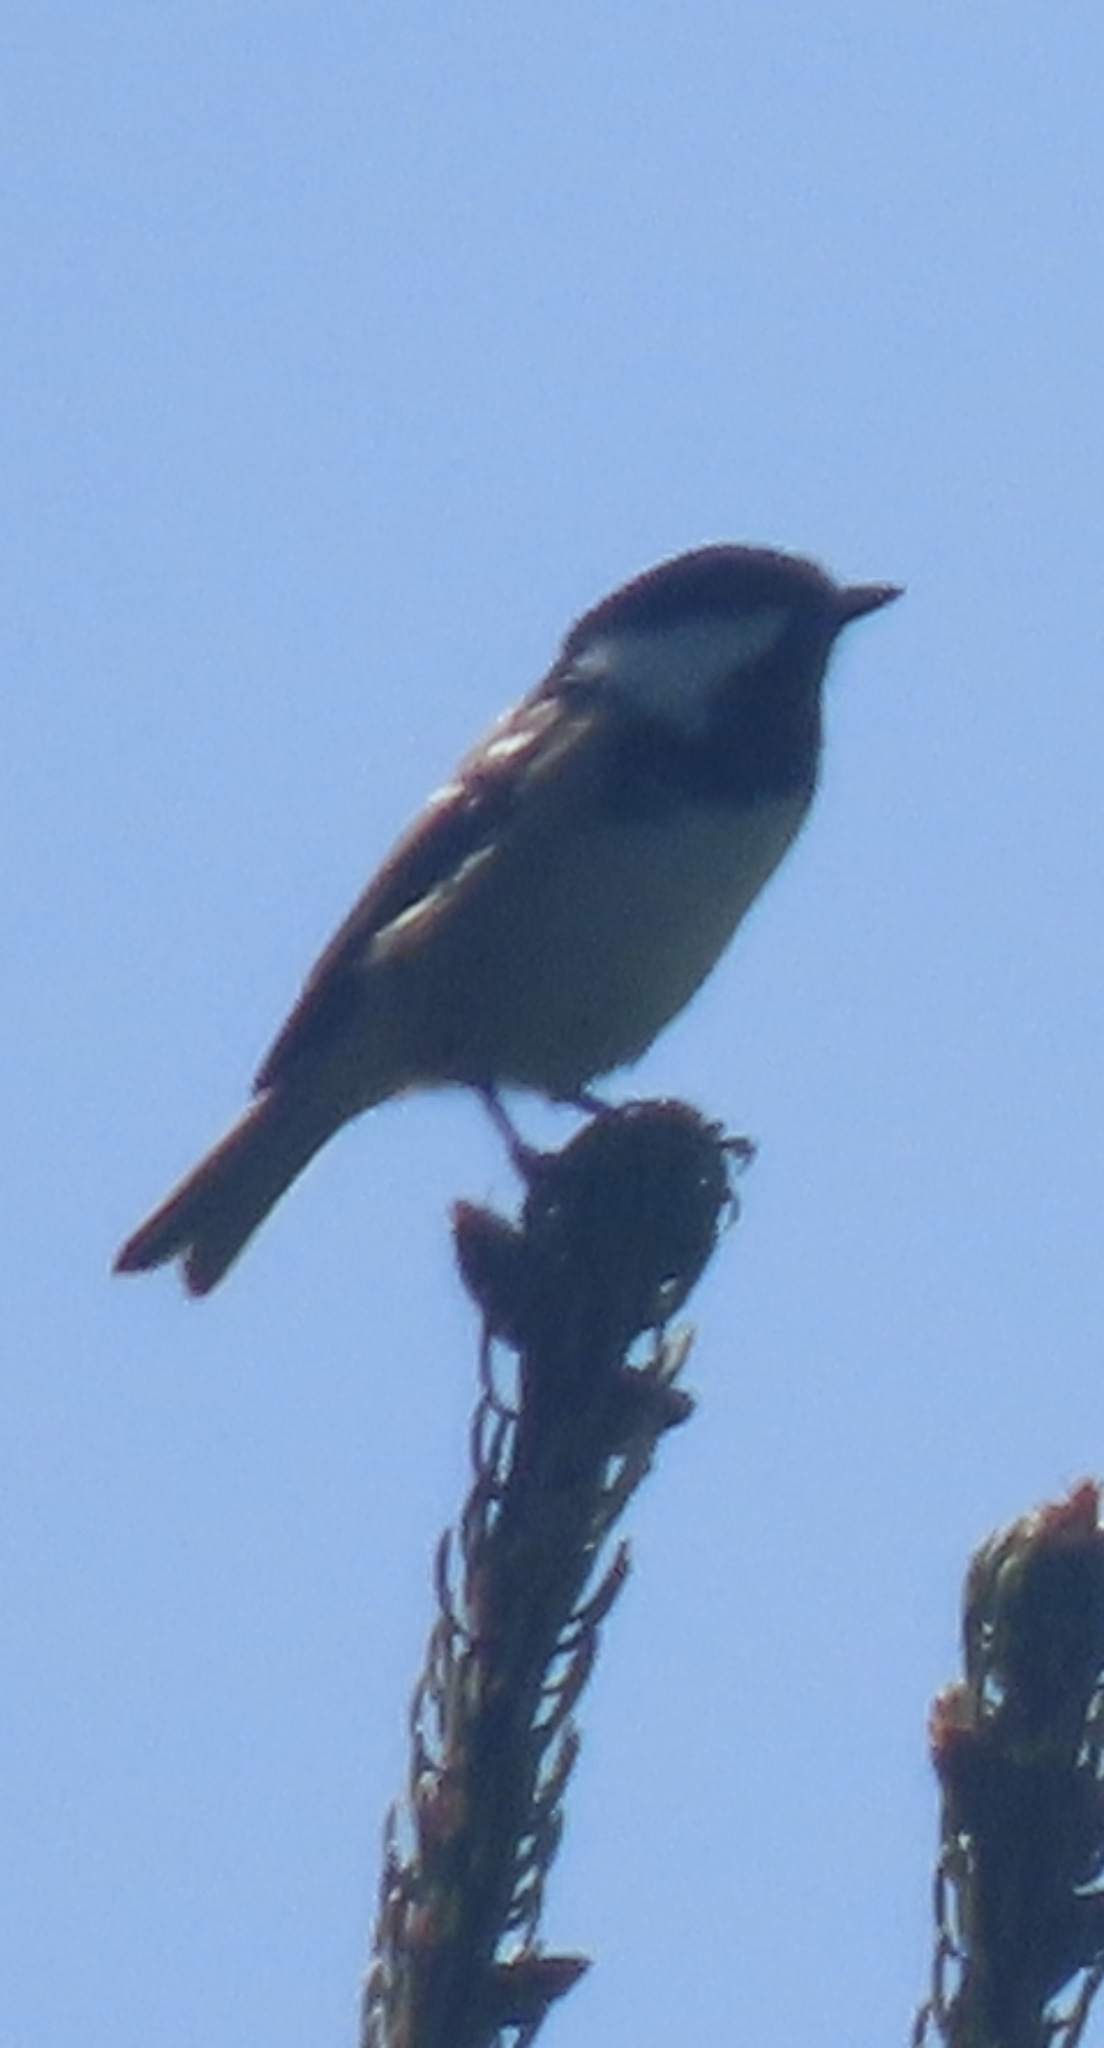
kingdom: Animalia
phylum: Chordata
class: Aves
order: Passeriformes
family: Paridae
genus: Periparus
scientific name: Periparus ater
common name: Coal tit
